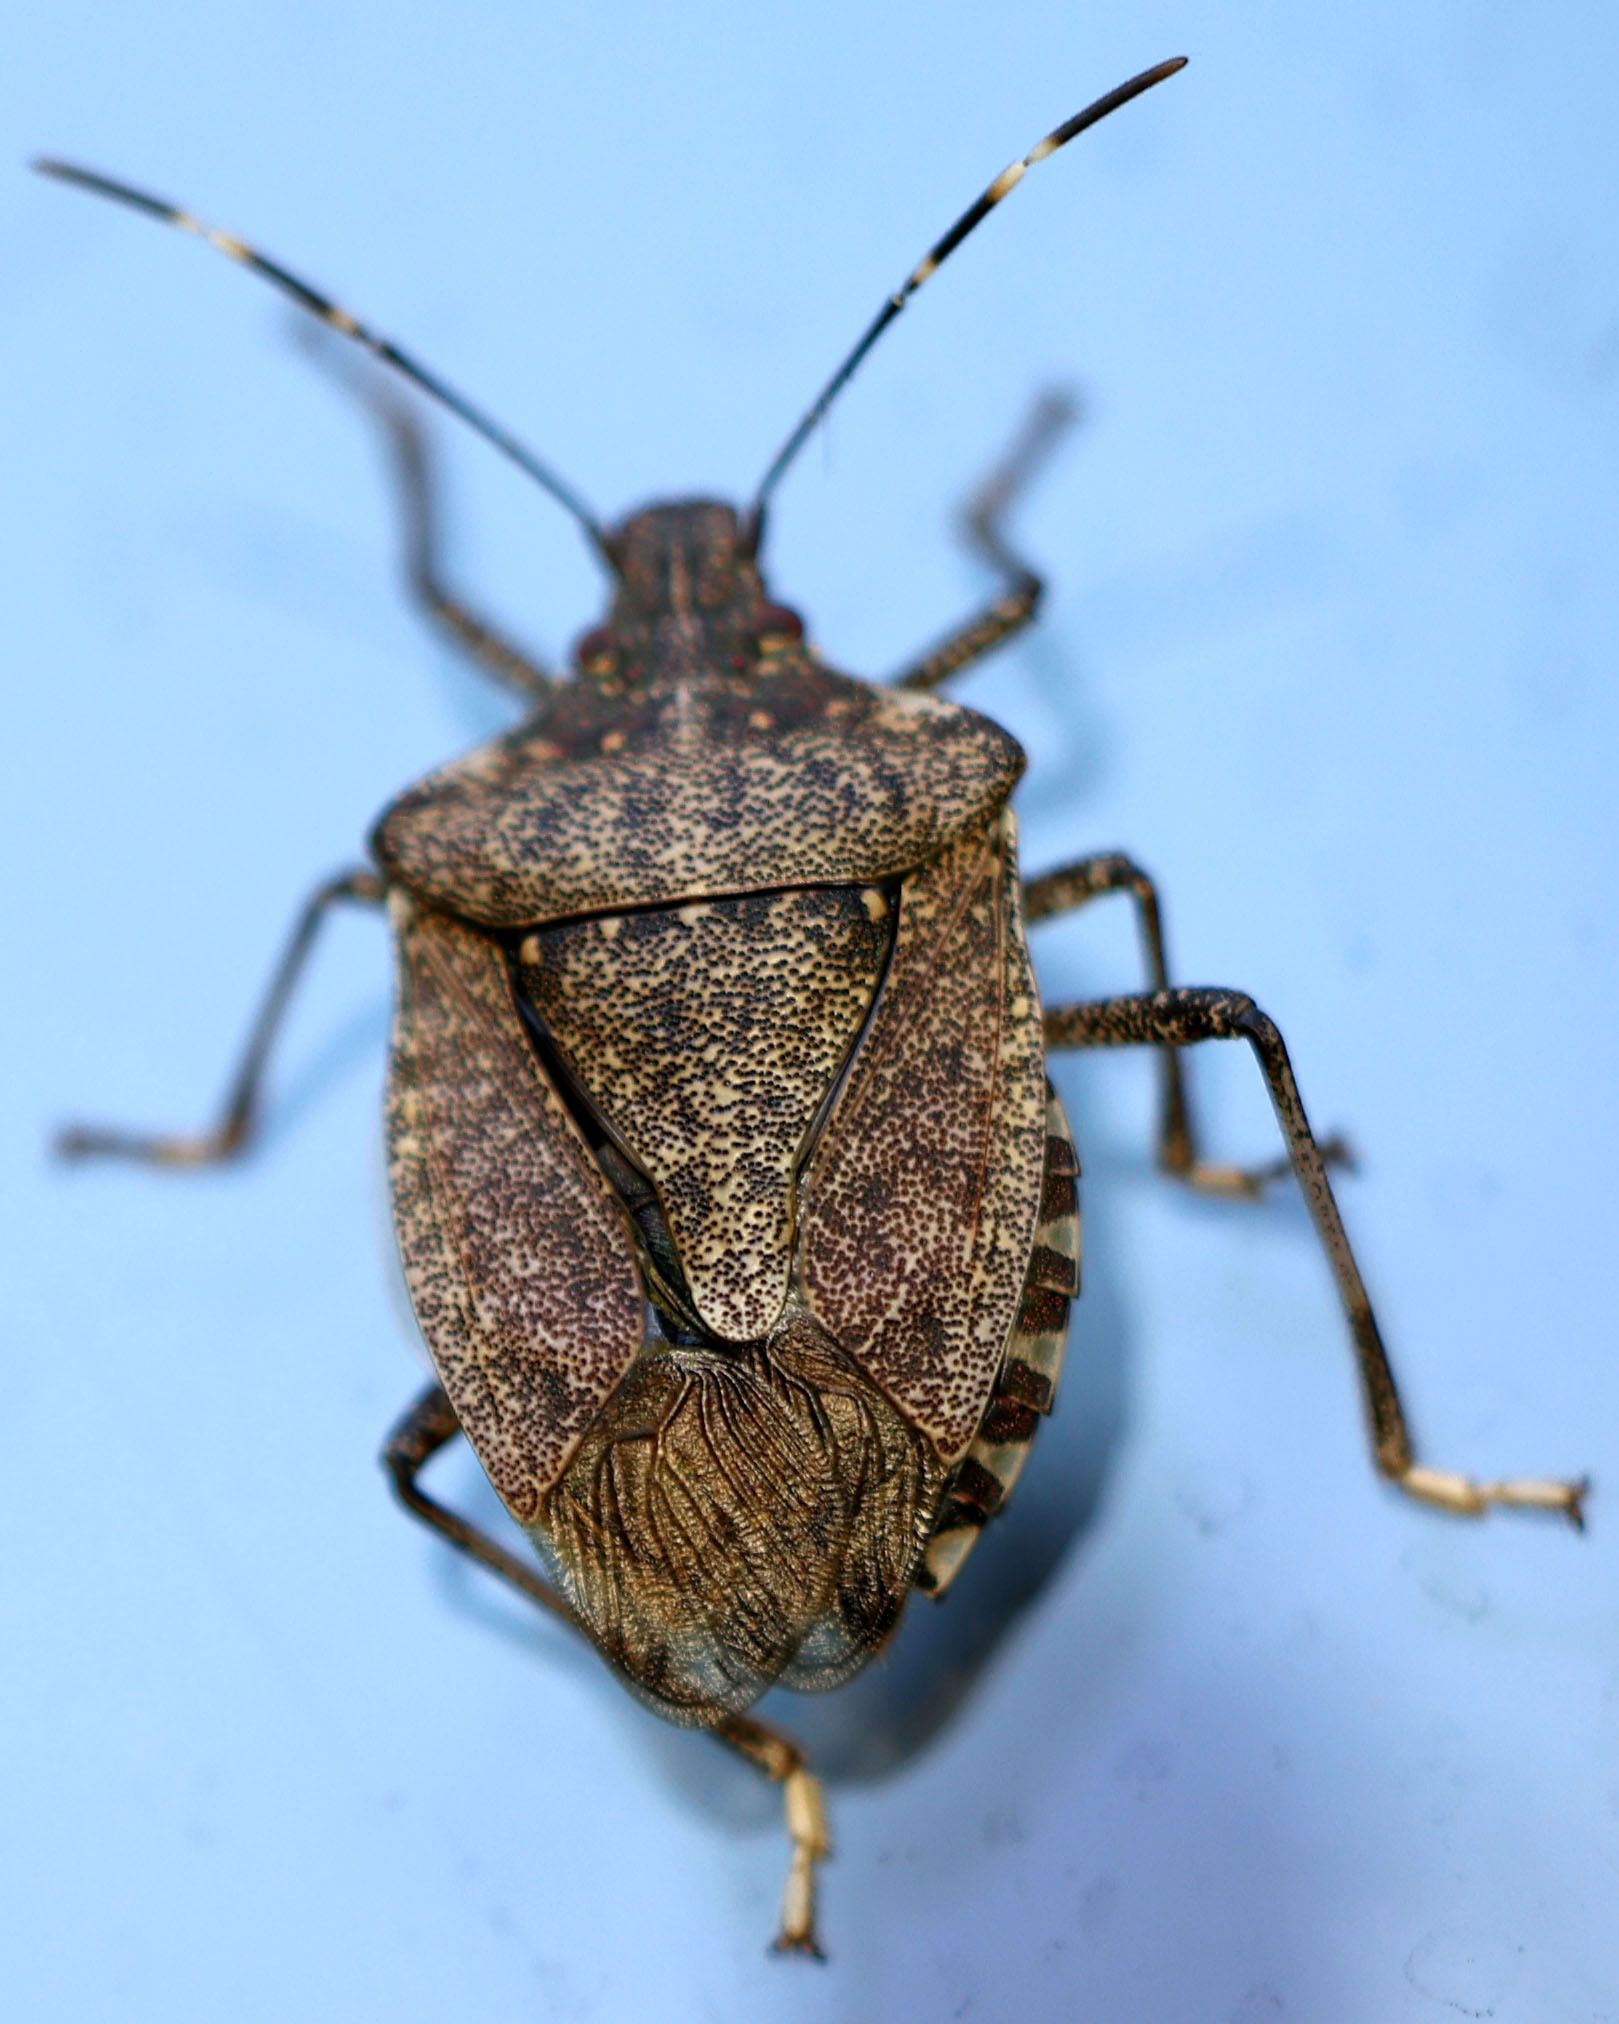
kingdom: Animalia
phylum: Arthropoda
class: Insecta
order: Hemiptera
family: Pentatomidae
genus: Halyomorpha
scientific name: Halyomorpha halys
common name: Brown marmorated stink bug
